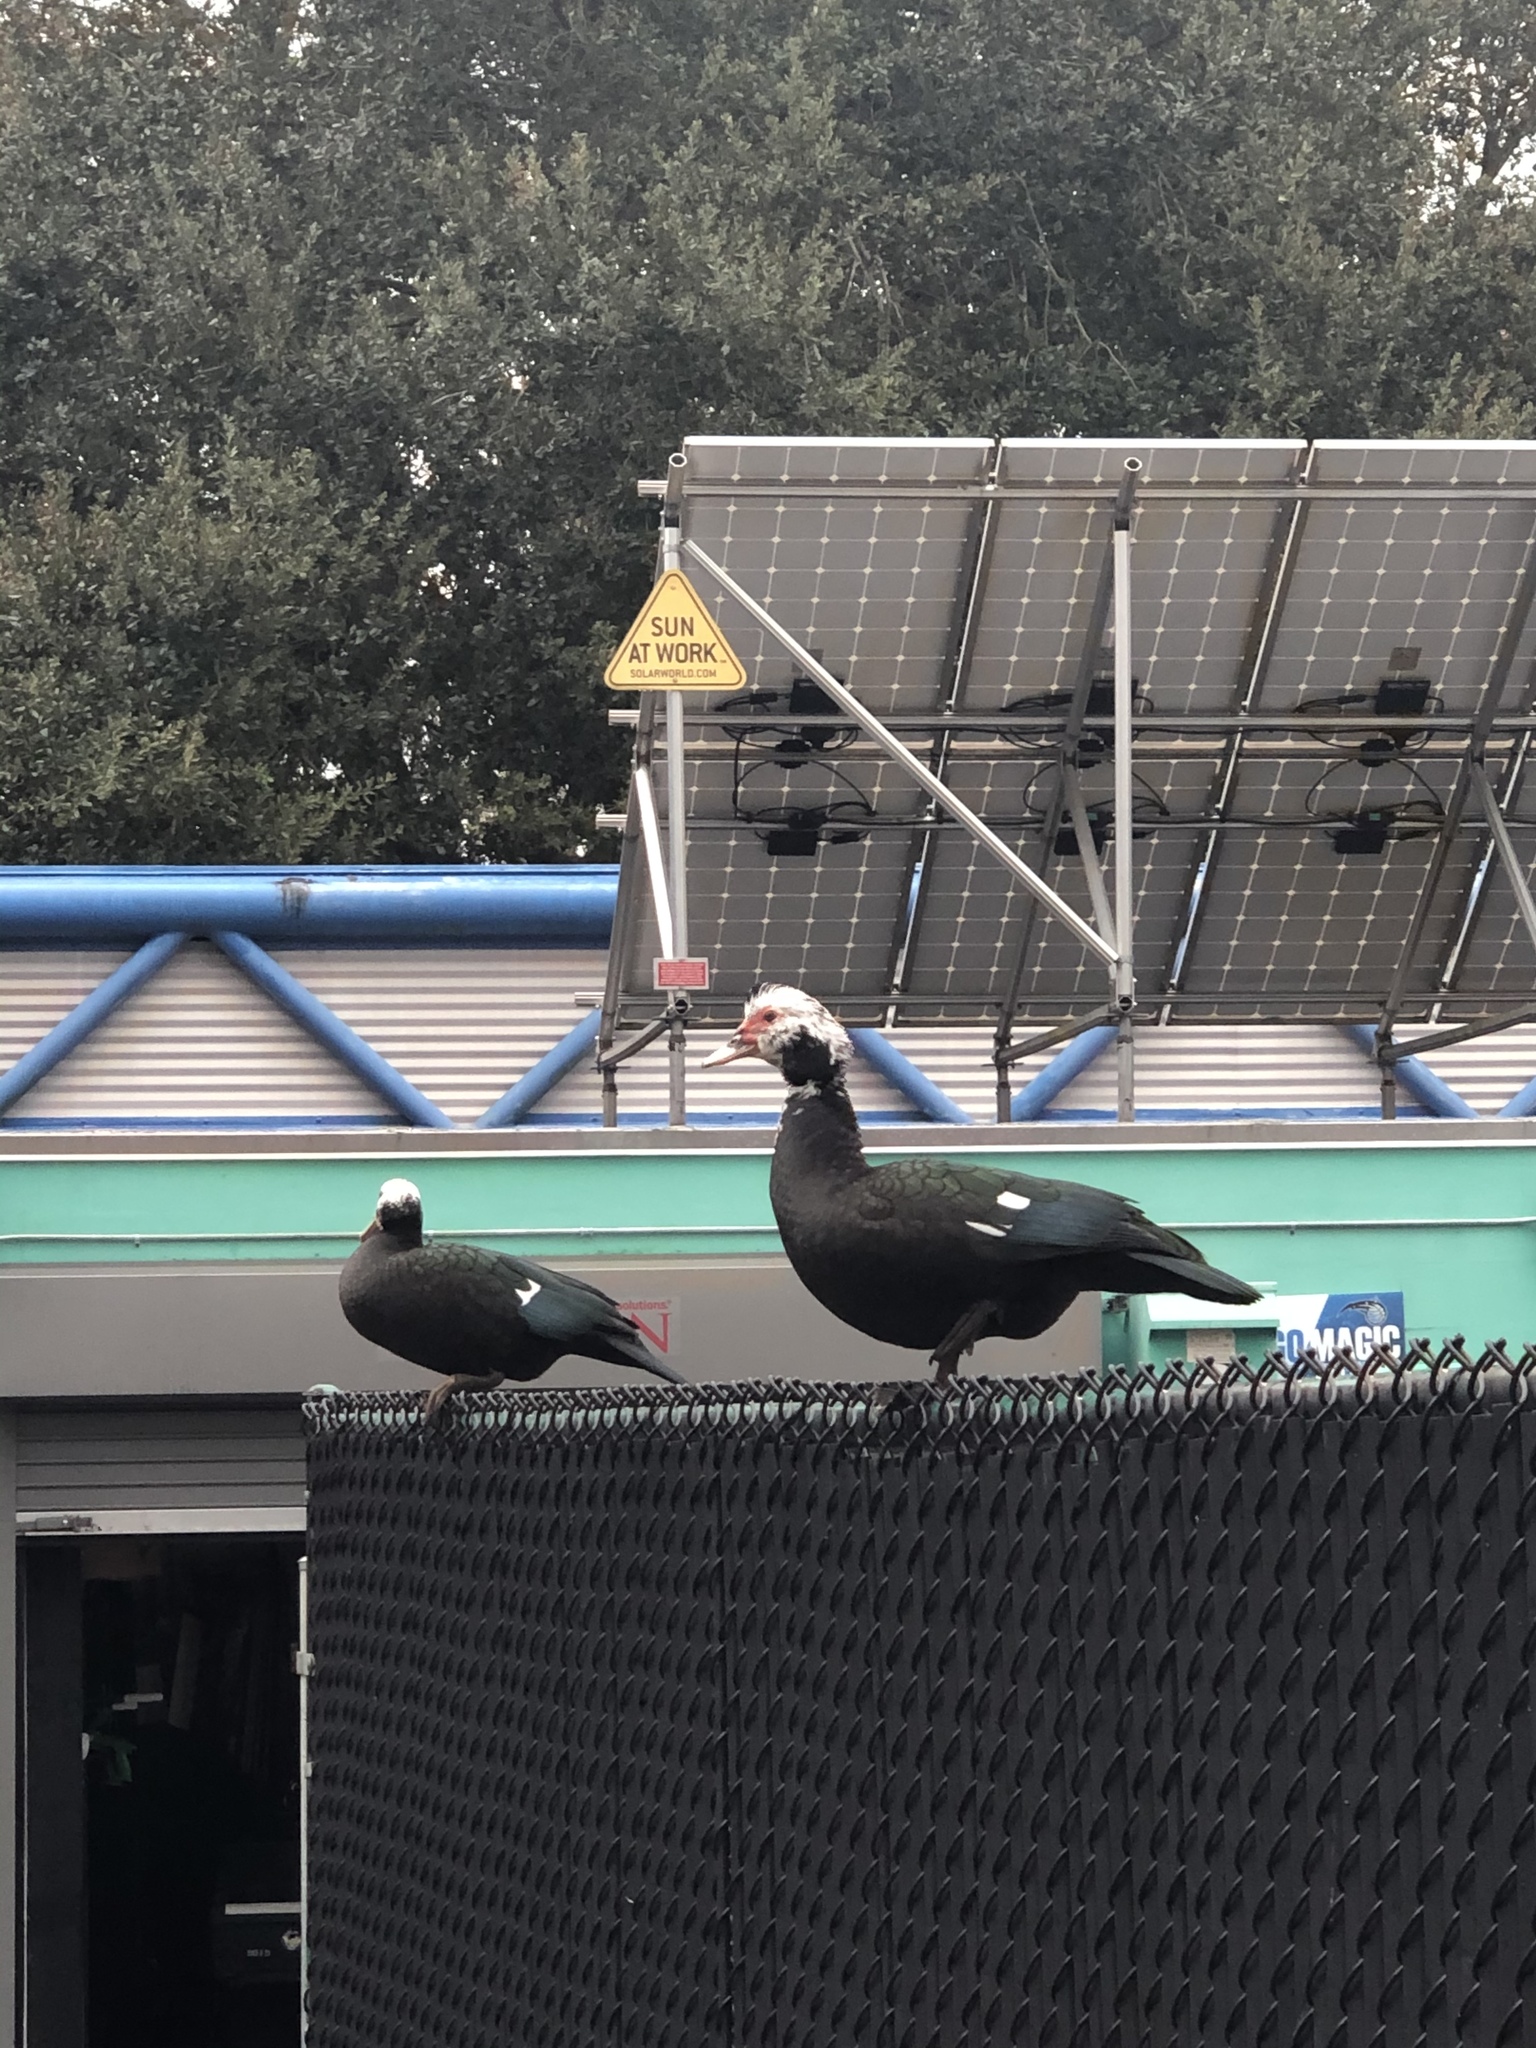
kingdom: Animalia
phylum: Chordata
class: Aves
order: Anseriformes
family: Anatidae
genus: Cairina
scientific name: Cairina moschata
